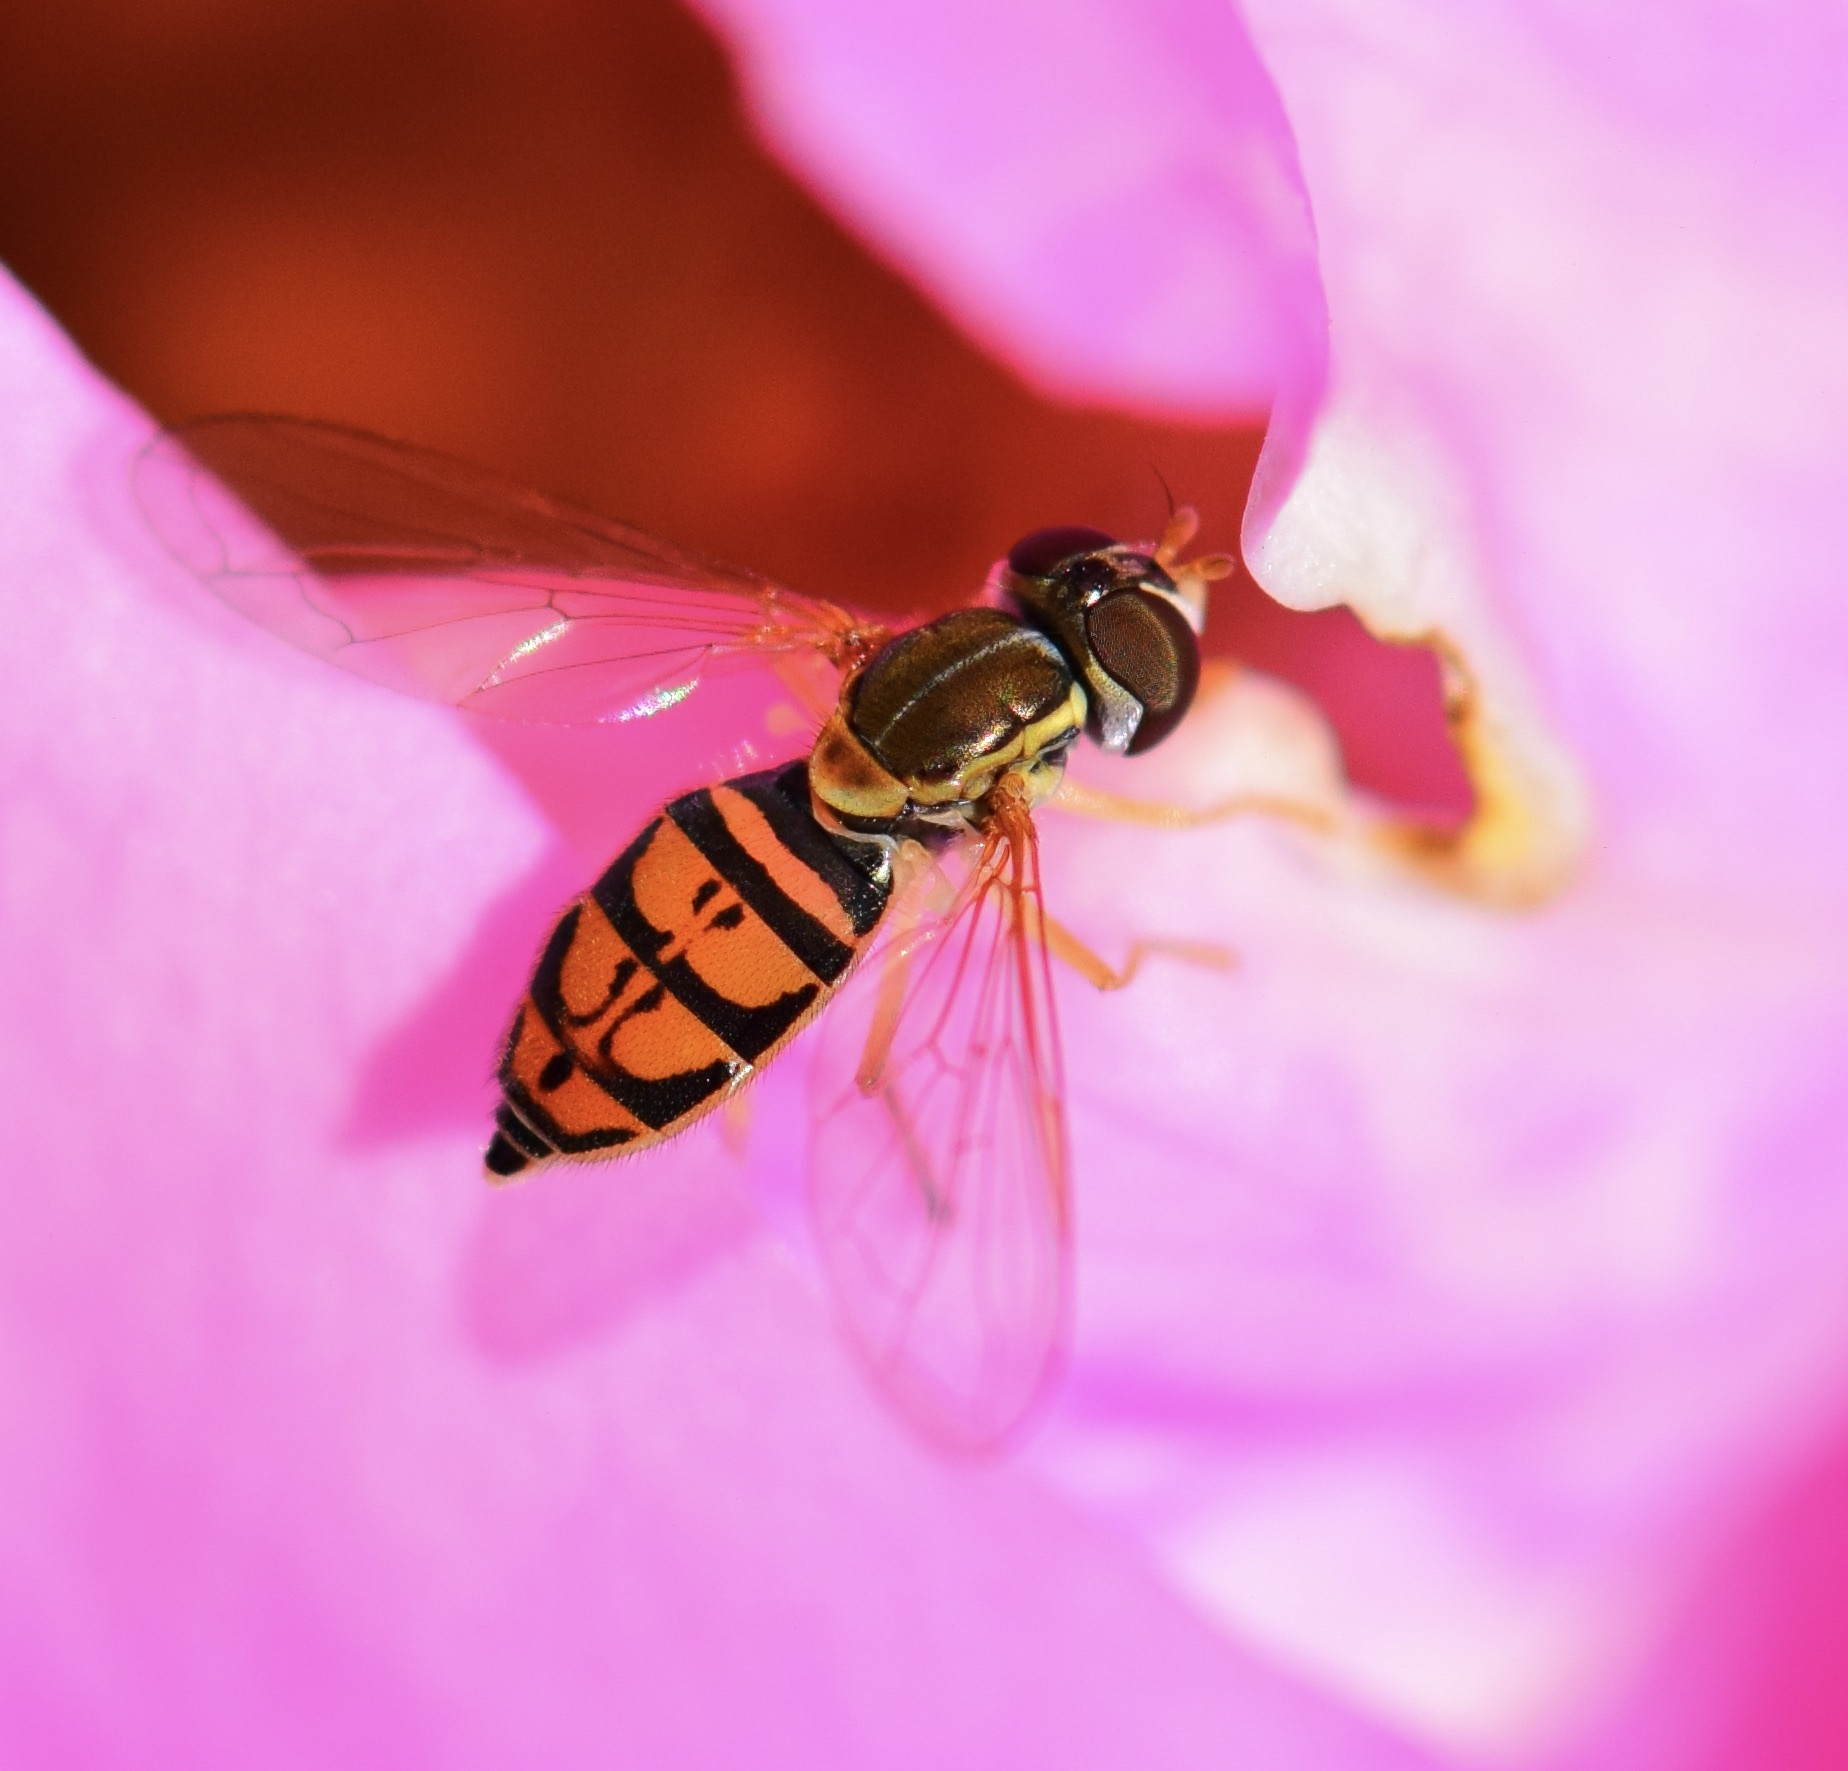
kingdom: Animalia
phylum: Arthropoda
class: Insecta
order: Diptera
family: Syrphidae
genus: Toxomerus
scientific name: Toxomerus marginatus
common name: Syrphid fly
